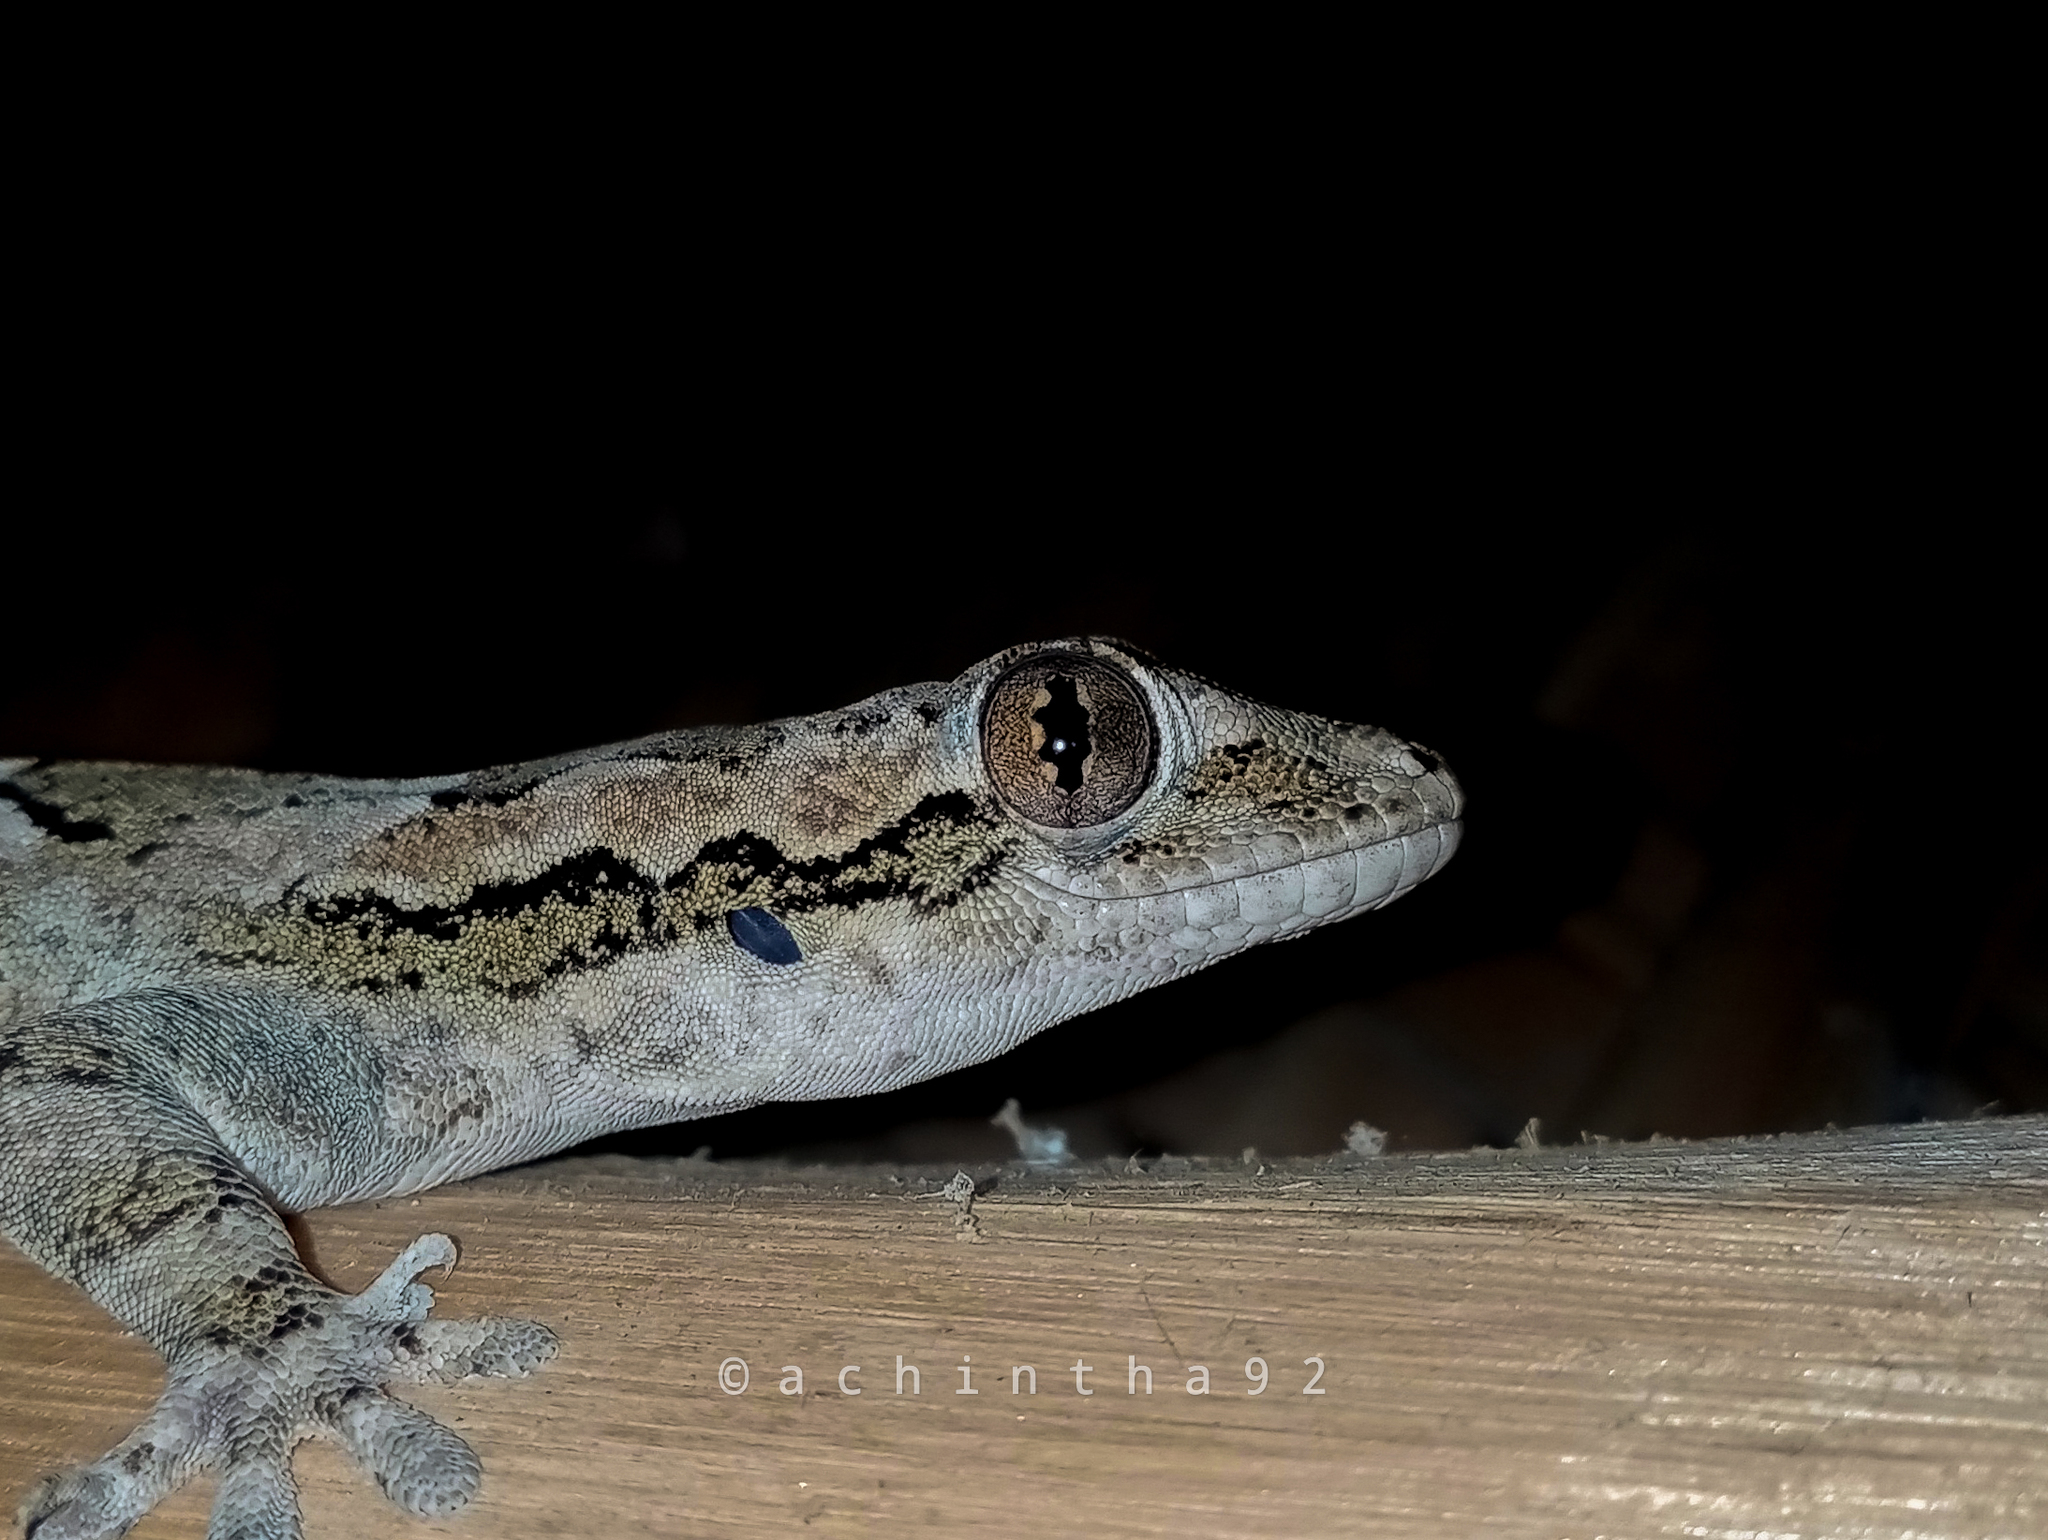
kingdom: Animalia
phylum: Chordata
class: Squamata
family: Gekkonidae
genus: Hemidactylus
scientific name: Hemidactylus leschenaultii
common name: Leschenault's leaf-toed gecko
